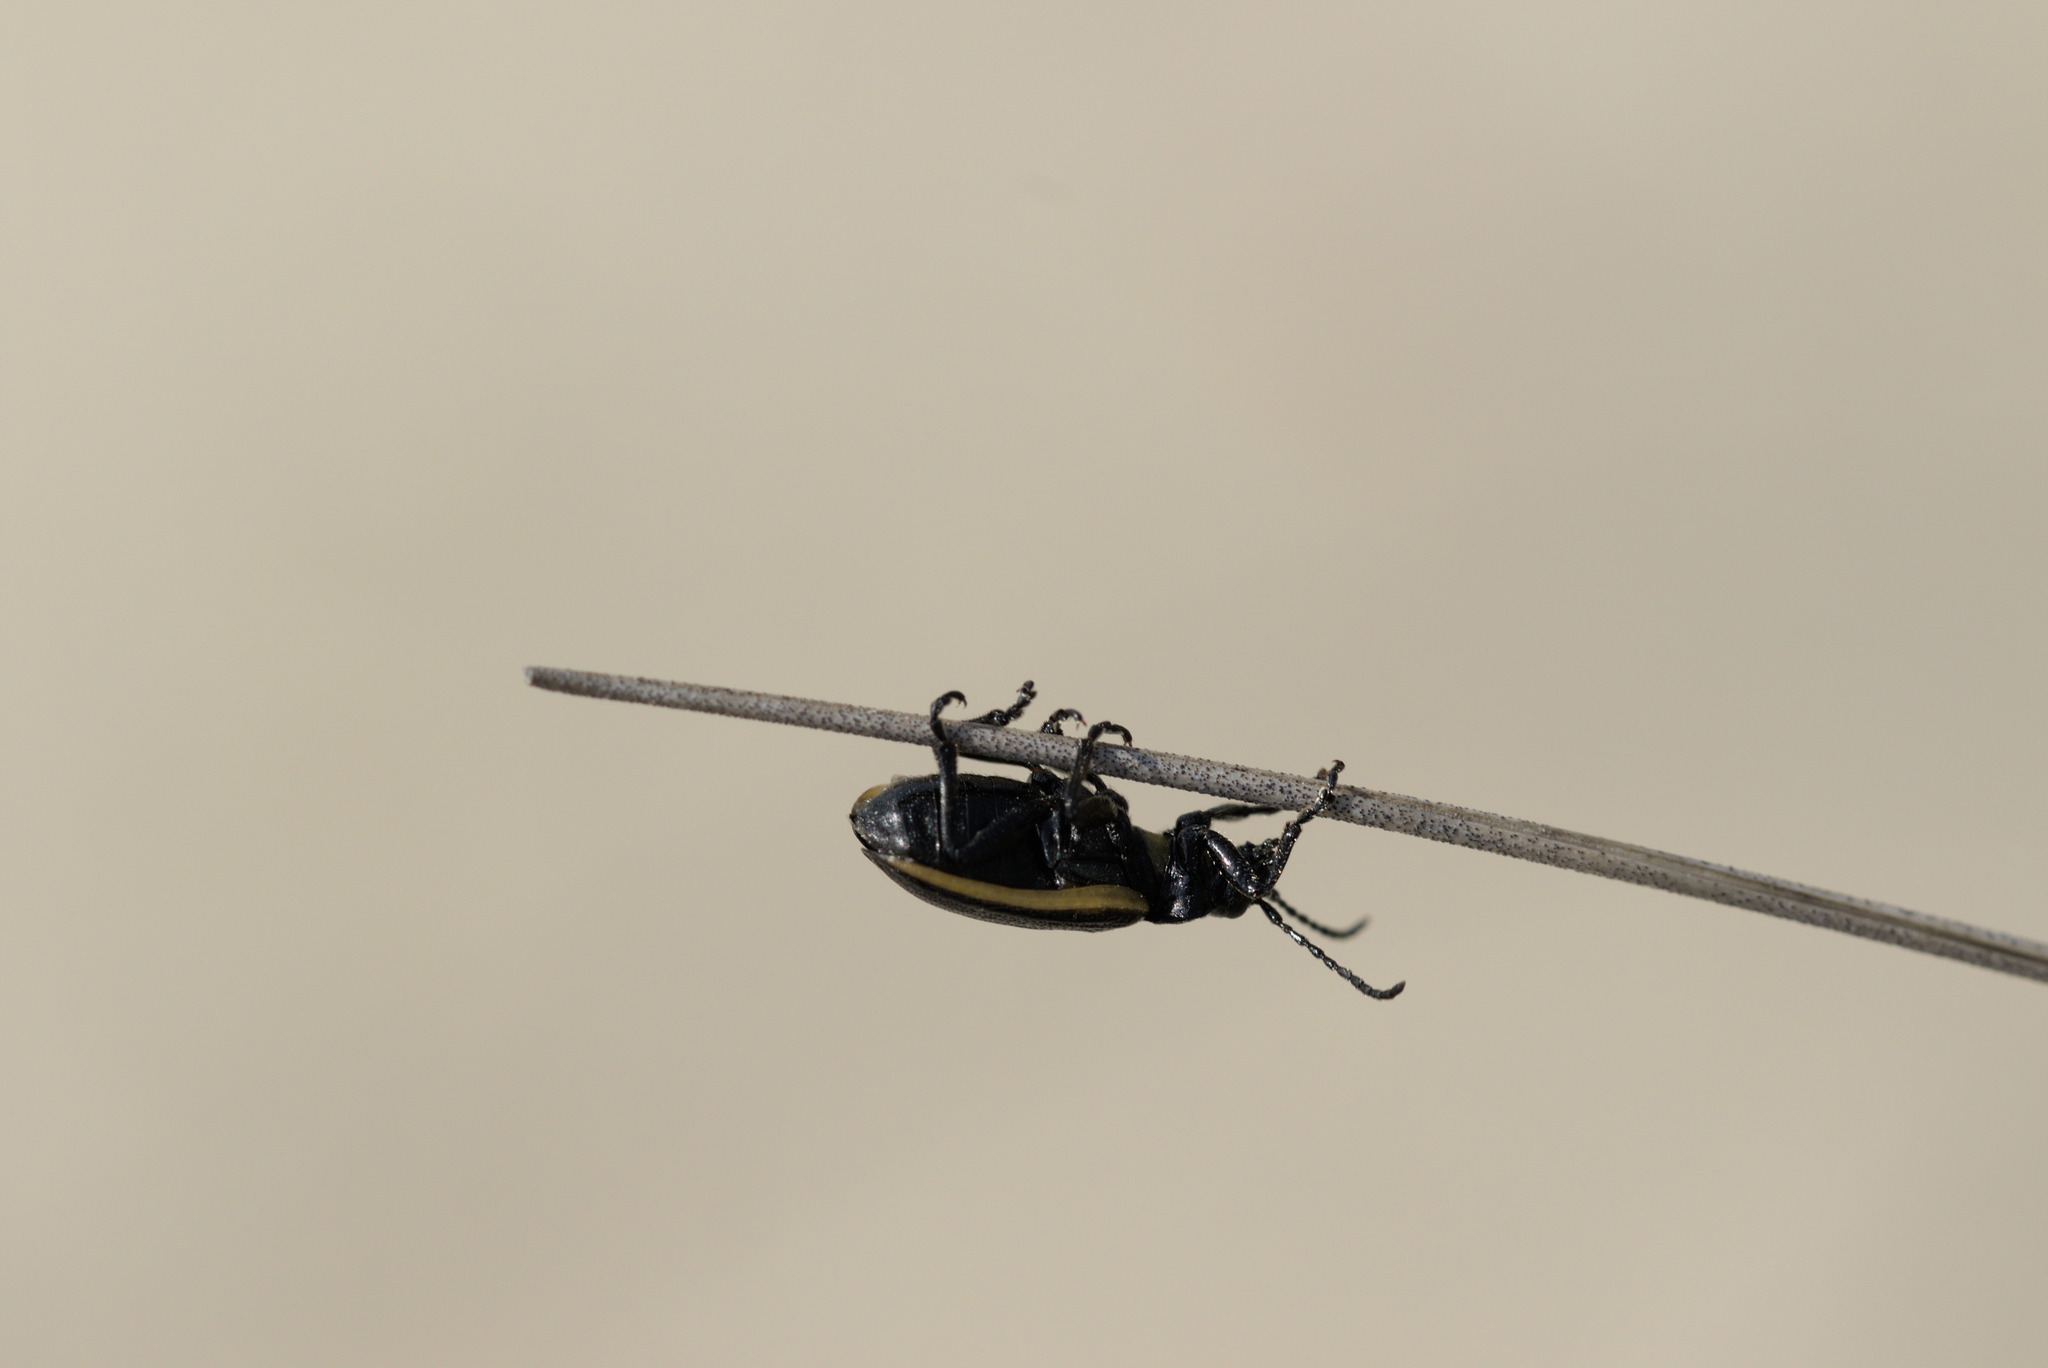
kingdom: Animalia
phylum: Arthropoda
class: Insecta
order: Coleoptera
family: Chrysomelidae
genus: Galeruca
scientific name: Galeruca rudis
